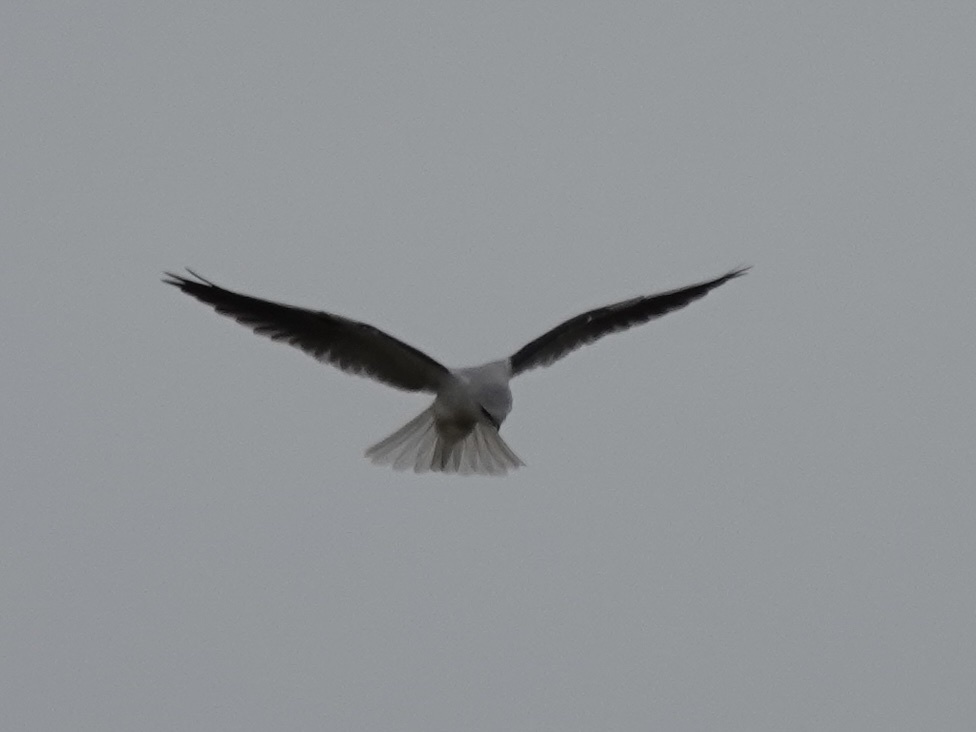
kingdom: Animalia
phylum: Chordata
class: Aves
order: Accipitriformes
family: Accipitridae
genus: Elanus
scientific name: Elanus leucurus
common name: White-tailed kite
